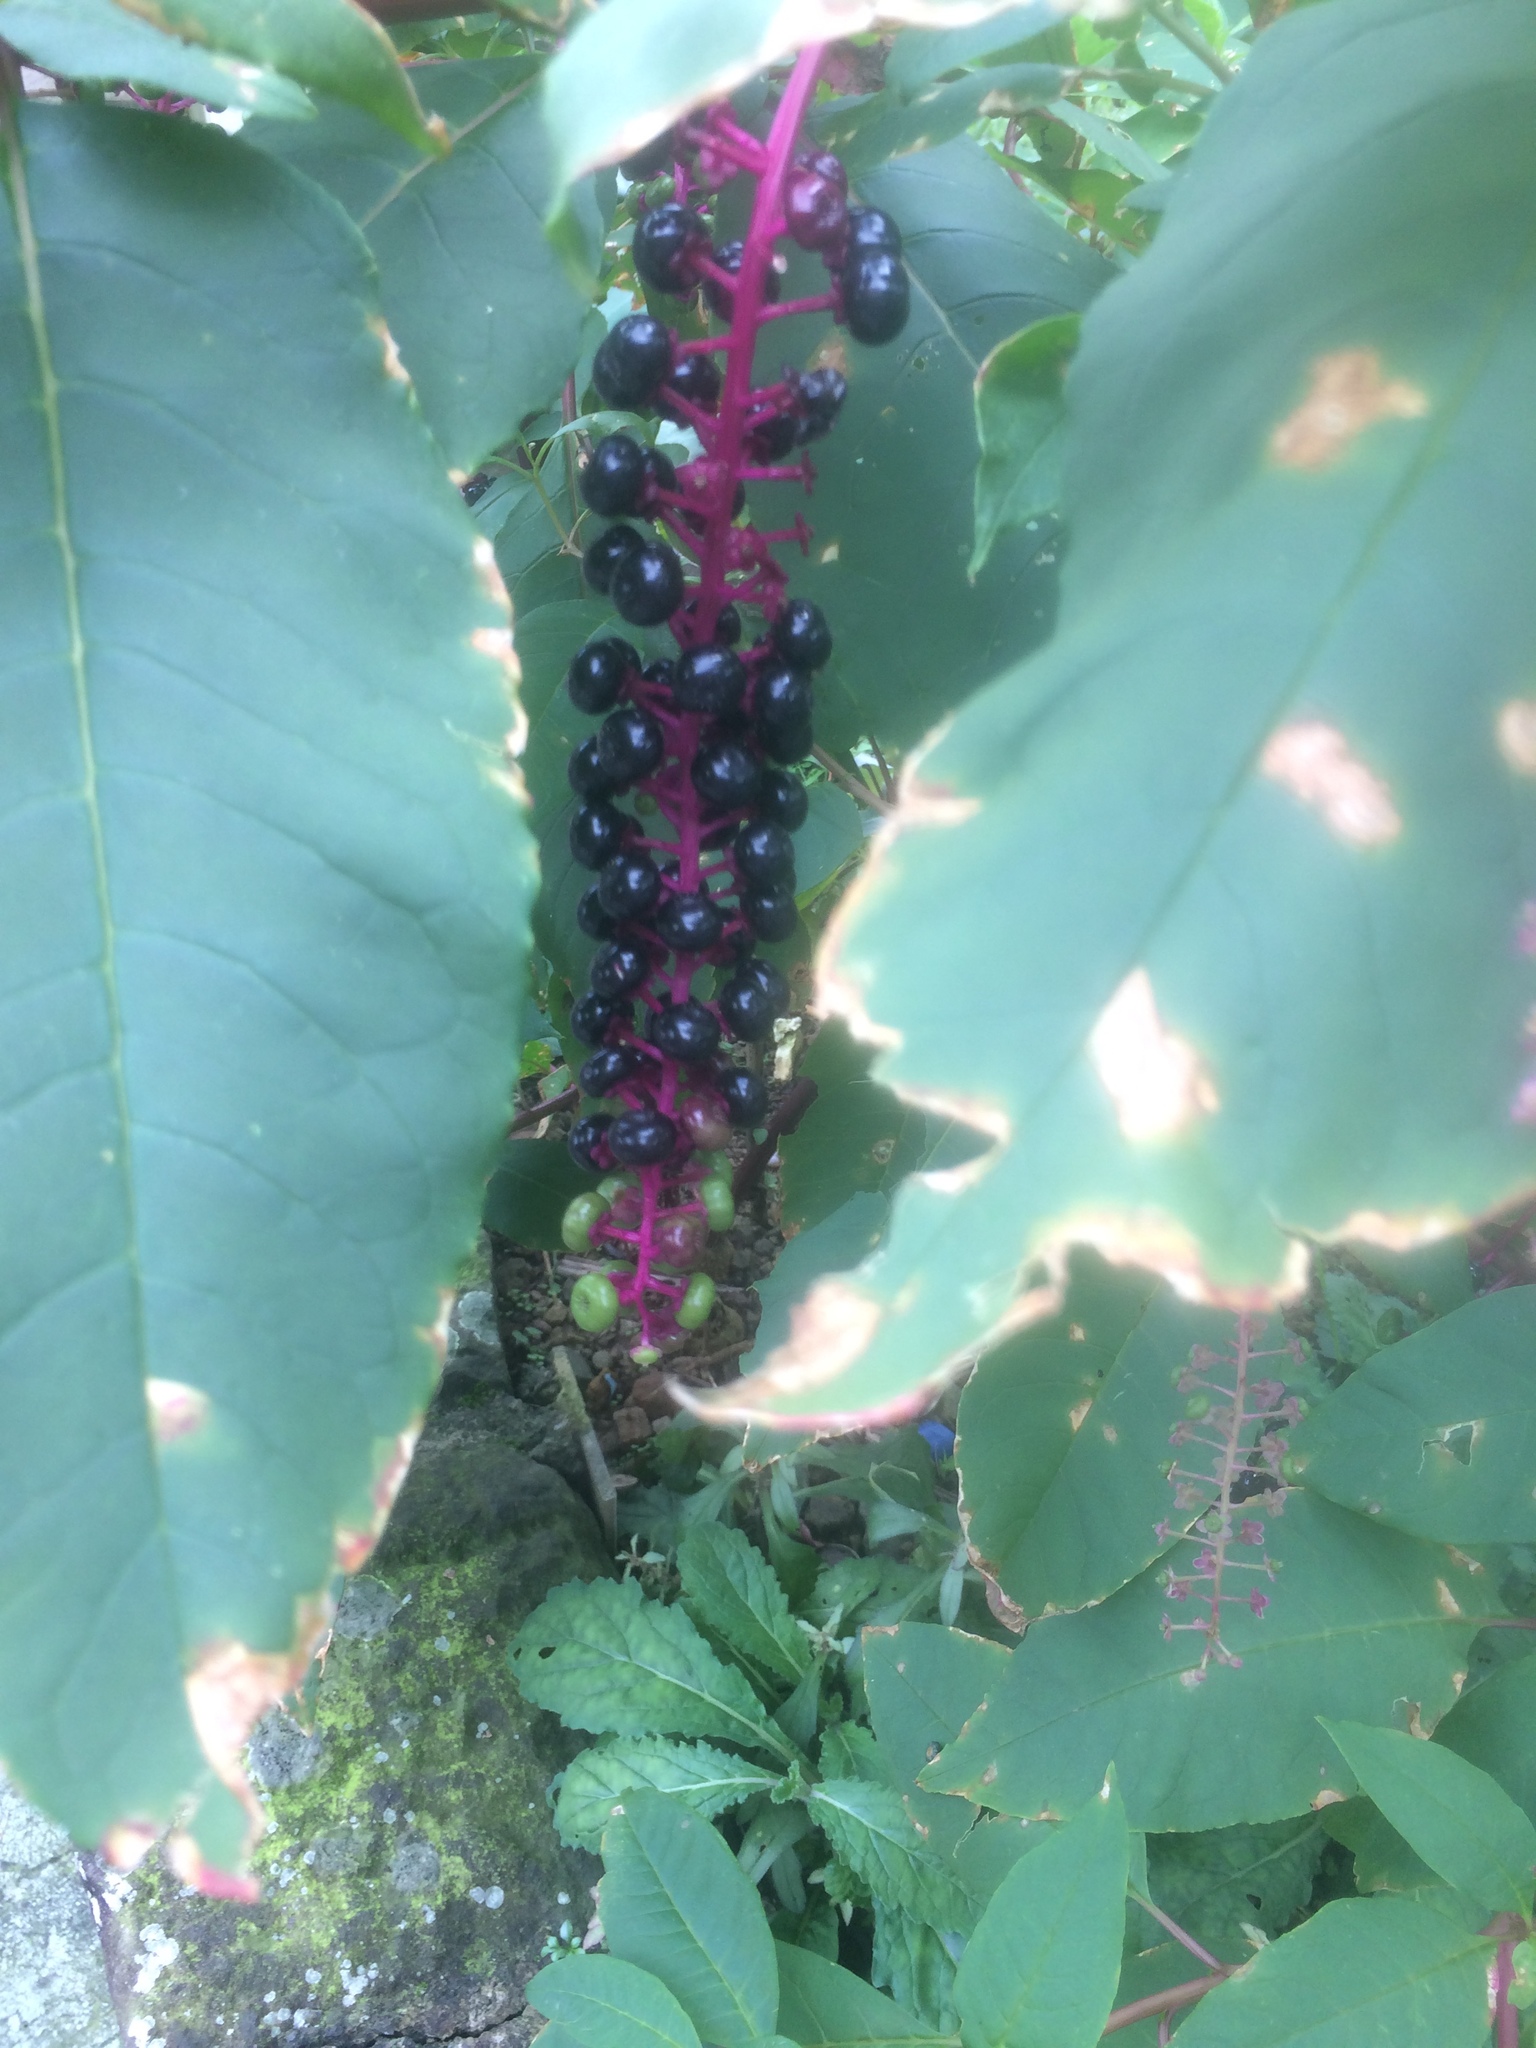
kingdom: Plantae
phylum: Tracheophyta
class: Magnoliopsida
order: Caryophyllales
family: Phytolaccaceae
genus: Phytolacca
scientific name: Phytolacca americana
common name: American pokeweed
